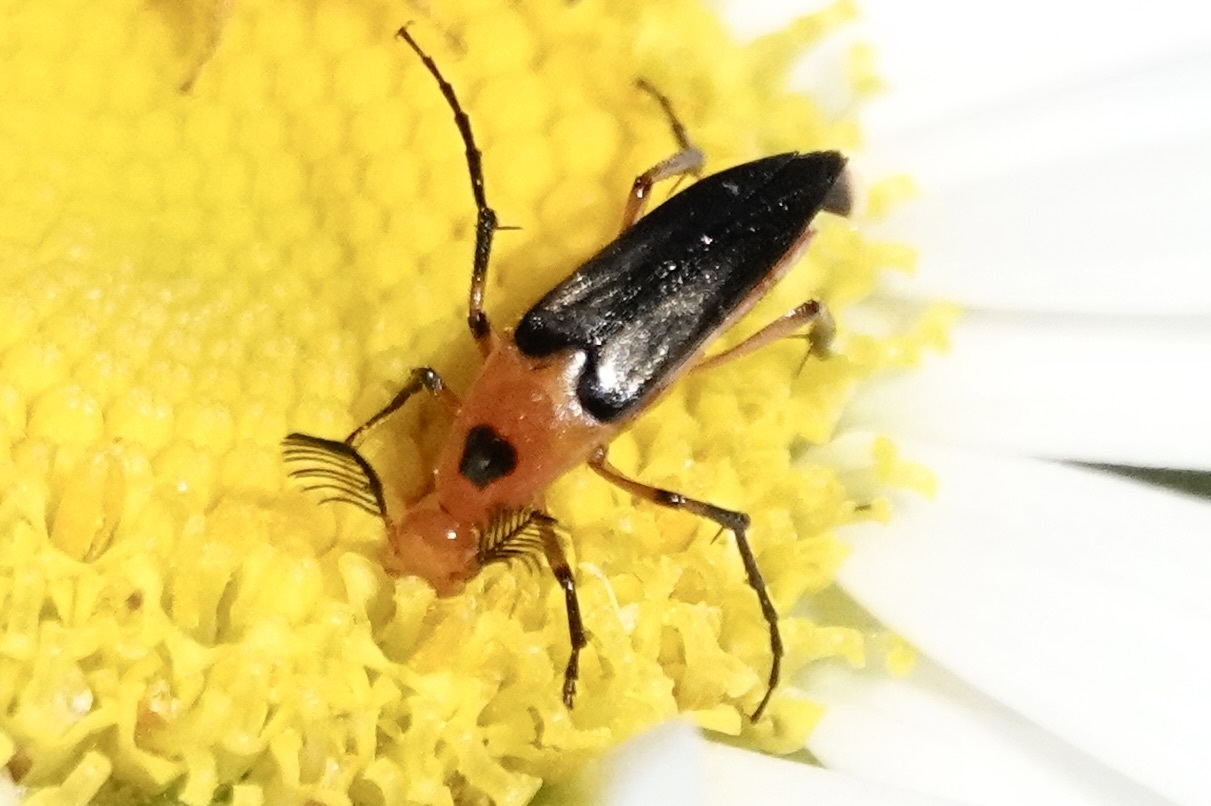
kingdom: Animalia
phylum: Arthropoda
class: Insecta
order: Coleoptera
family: Ripiphoridae
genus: Macrosiagon
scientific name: Macrosiagon limbatum
